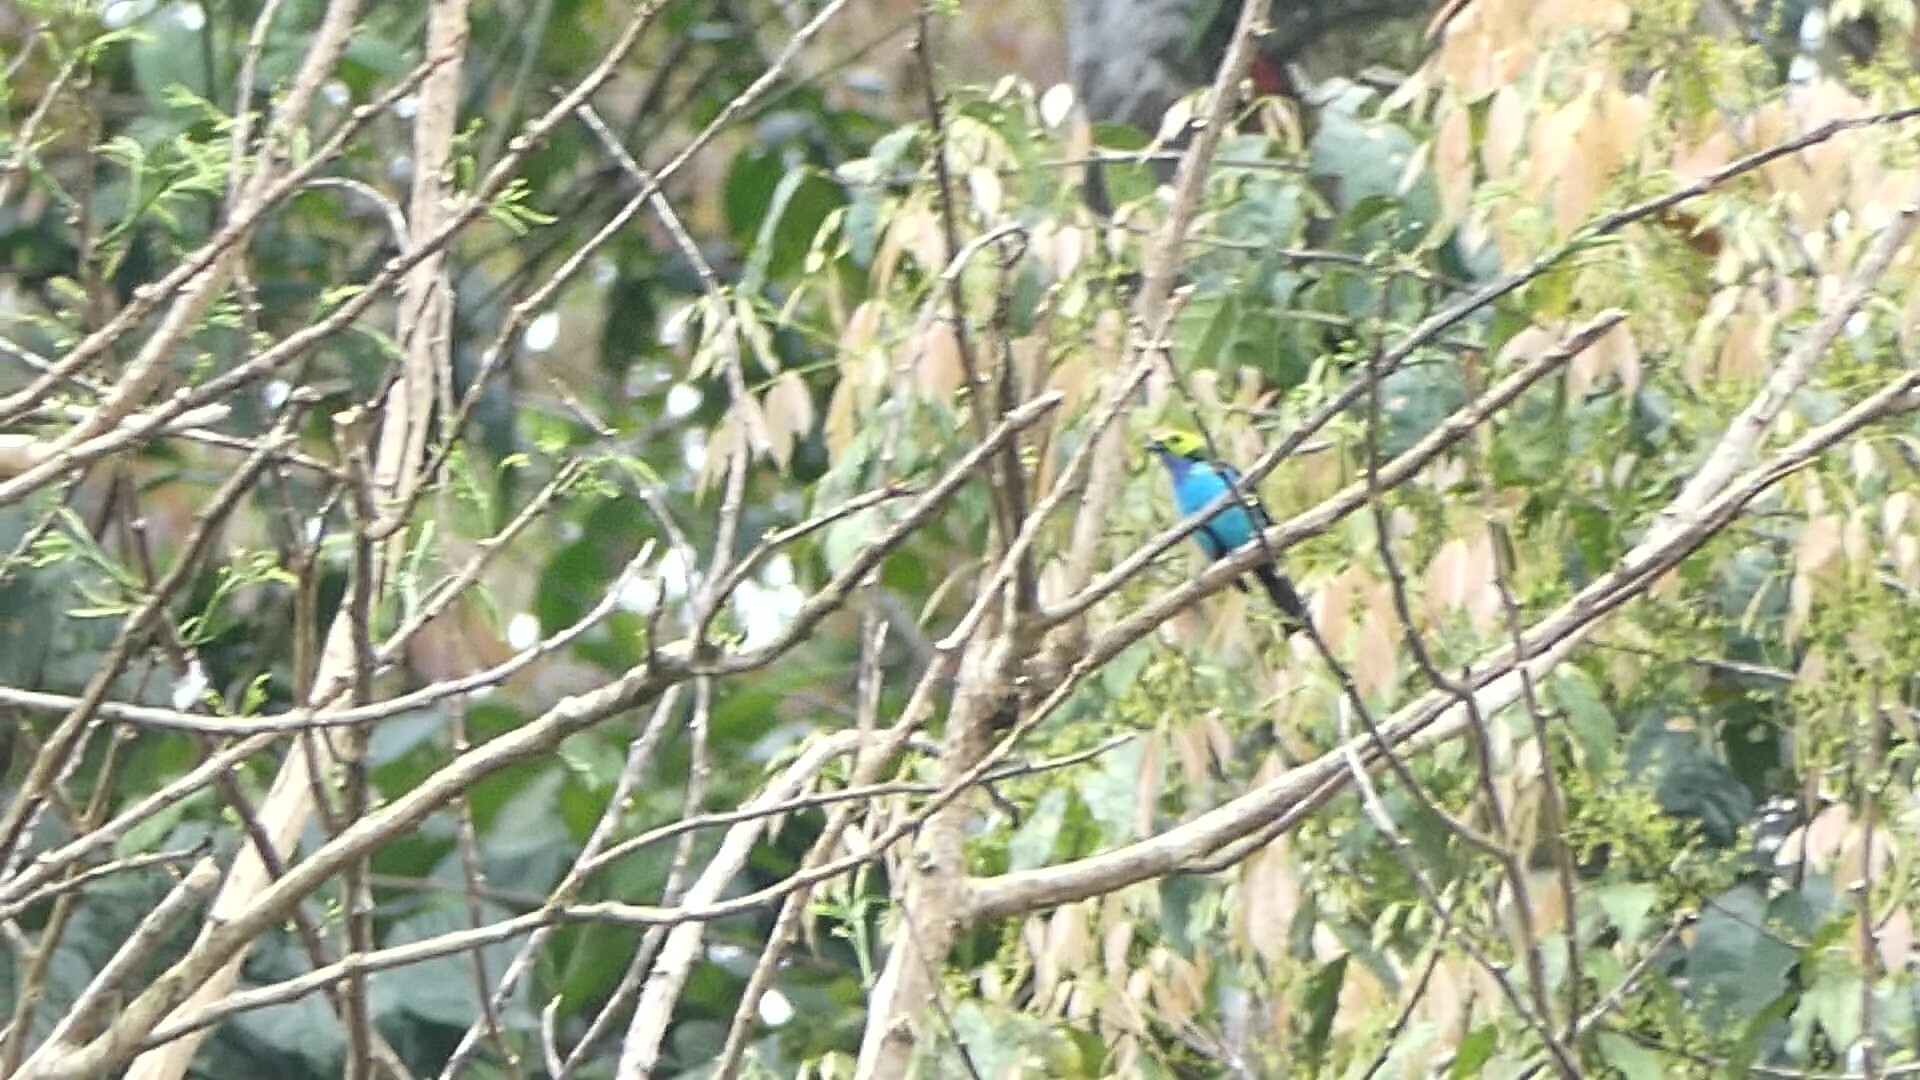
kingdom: Animalia
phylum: Chordata
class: Aves
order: Passeriformes
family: Thraupidae
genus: Tangara
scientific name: Tangara chilensis
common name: Paradise tanager
